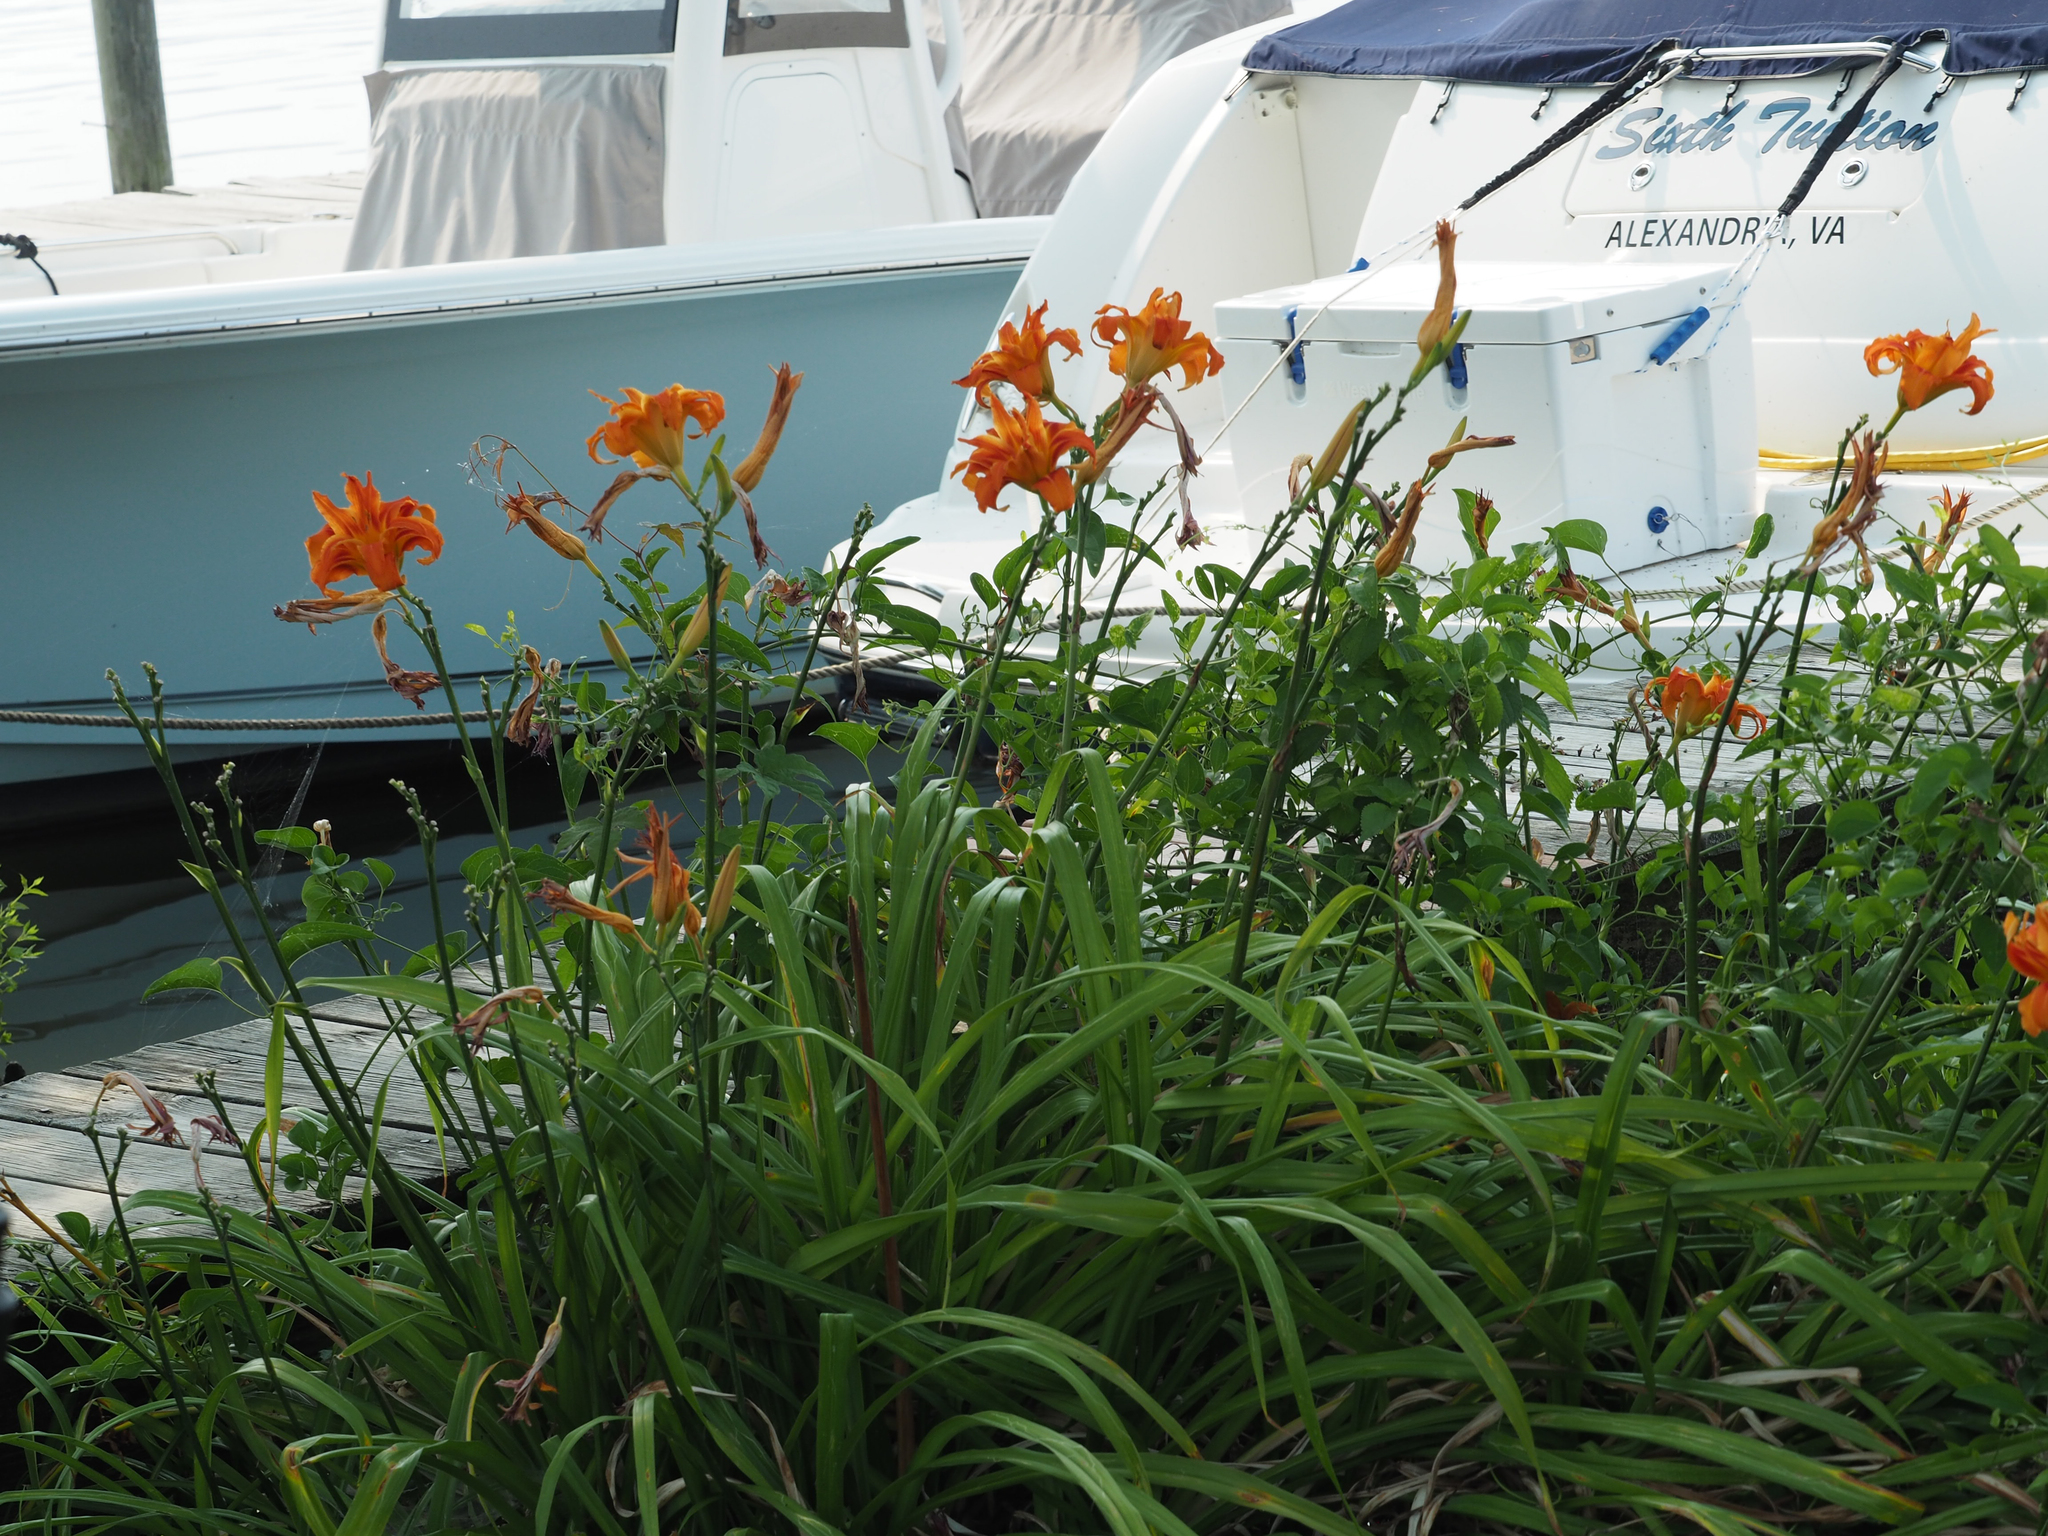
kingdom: Plantae
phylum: Tracheophyta
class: Liliopsida
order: Asparagales
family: Asphodelaceae
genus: Hemerocallis
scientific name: Hemerocallis fulva
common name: Orange day-lily
